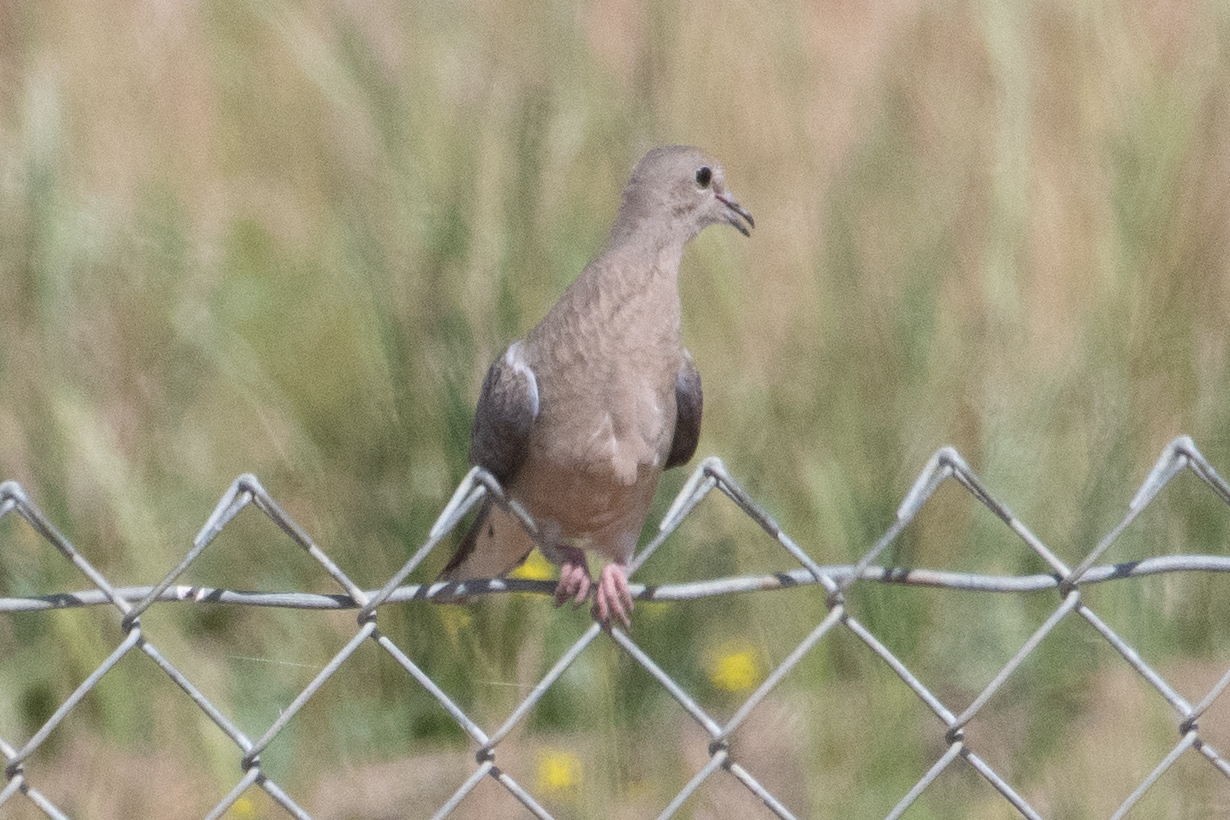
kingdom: Animalia
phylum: Chordata
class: Aves
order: Columbiformes
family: Columbidae
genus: Zenaida
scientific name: Zenaida macroura
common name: Mourning dove
